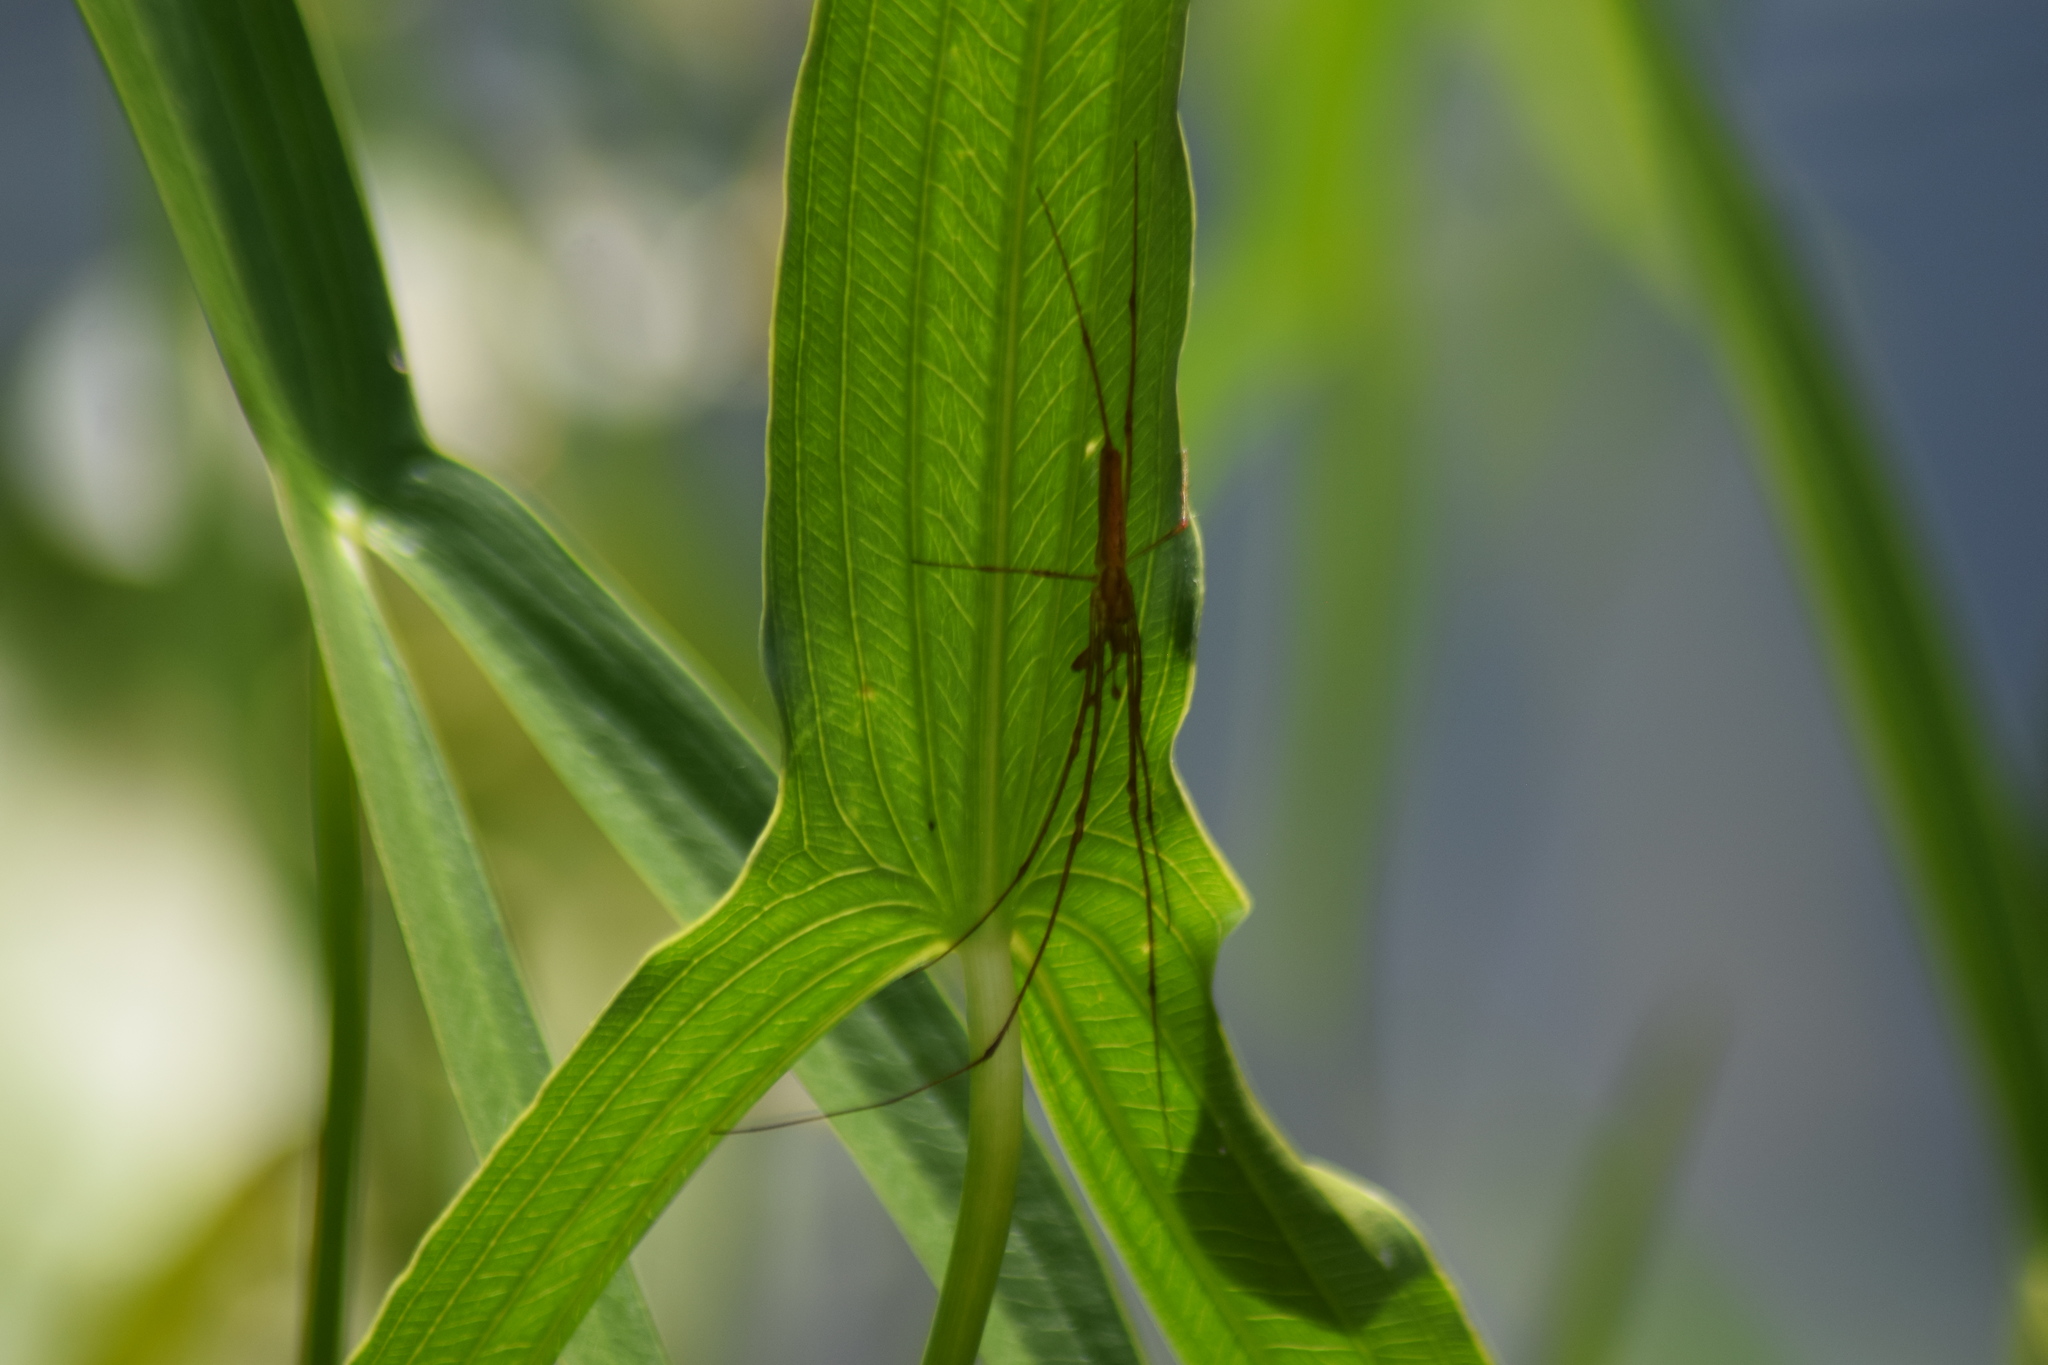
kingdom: Animalia
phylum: Arthropoda
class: Arachnida
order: Araneae
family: Tetragnathidae
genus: Tetragnatha
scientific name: Tetragnatha
